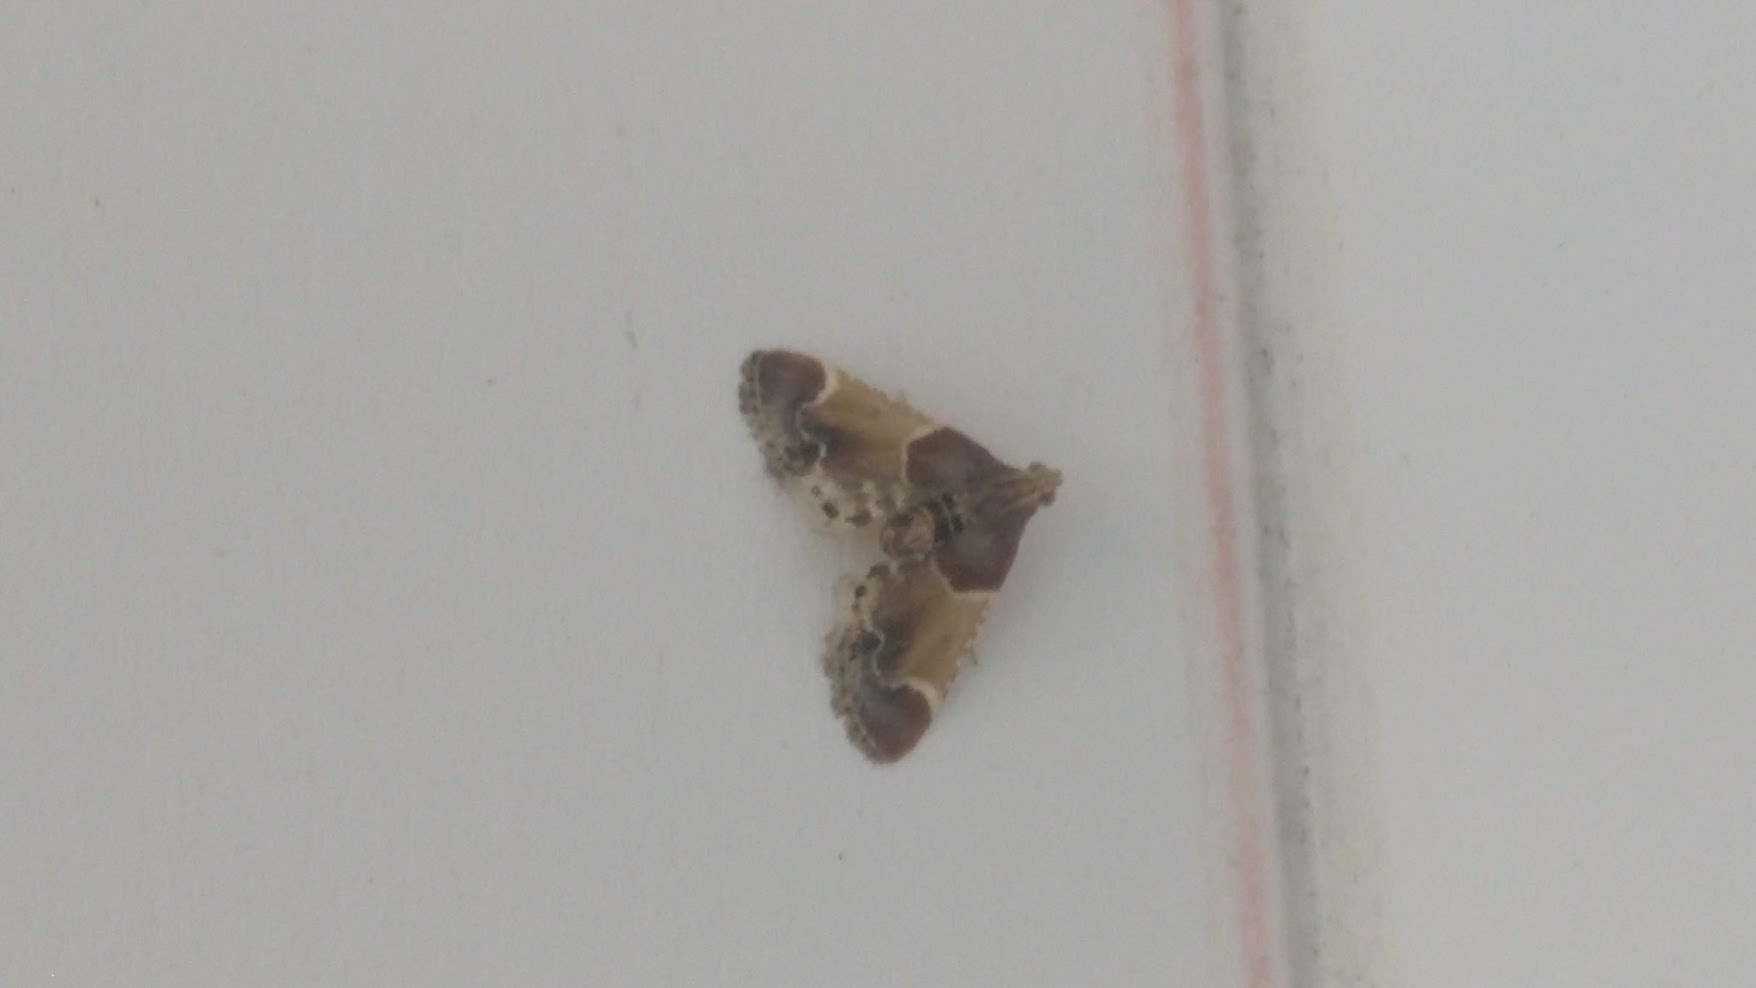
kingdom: Animalia
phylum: Arthropoda
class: Insecta
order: Lepidoptera
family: Pyralidae
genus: Pyralis
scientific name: Pyralis farinalis
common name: Meal moth
